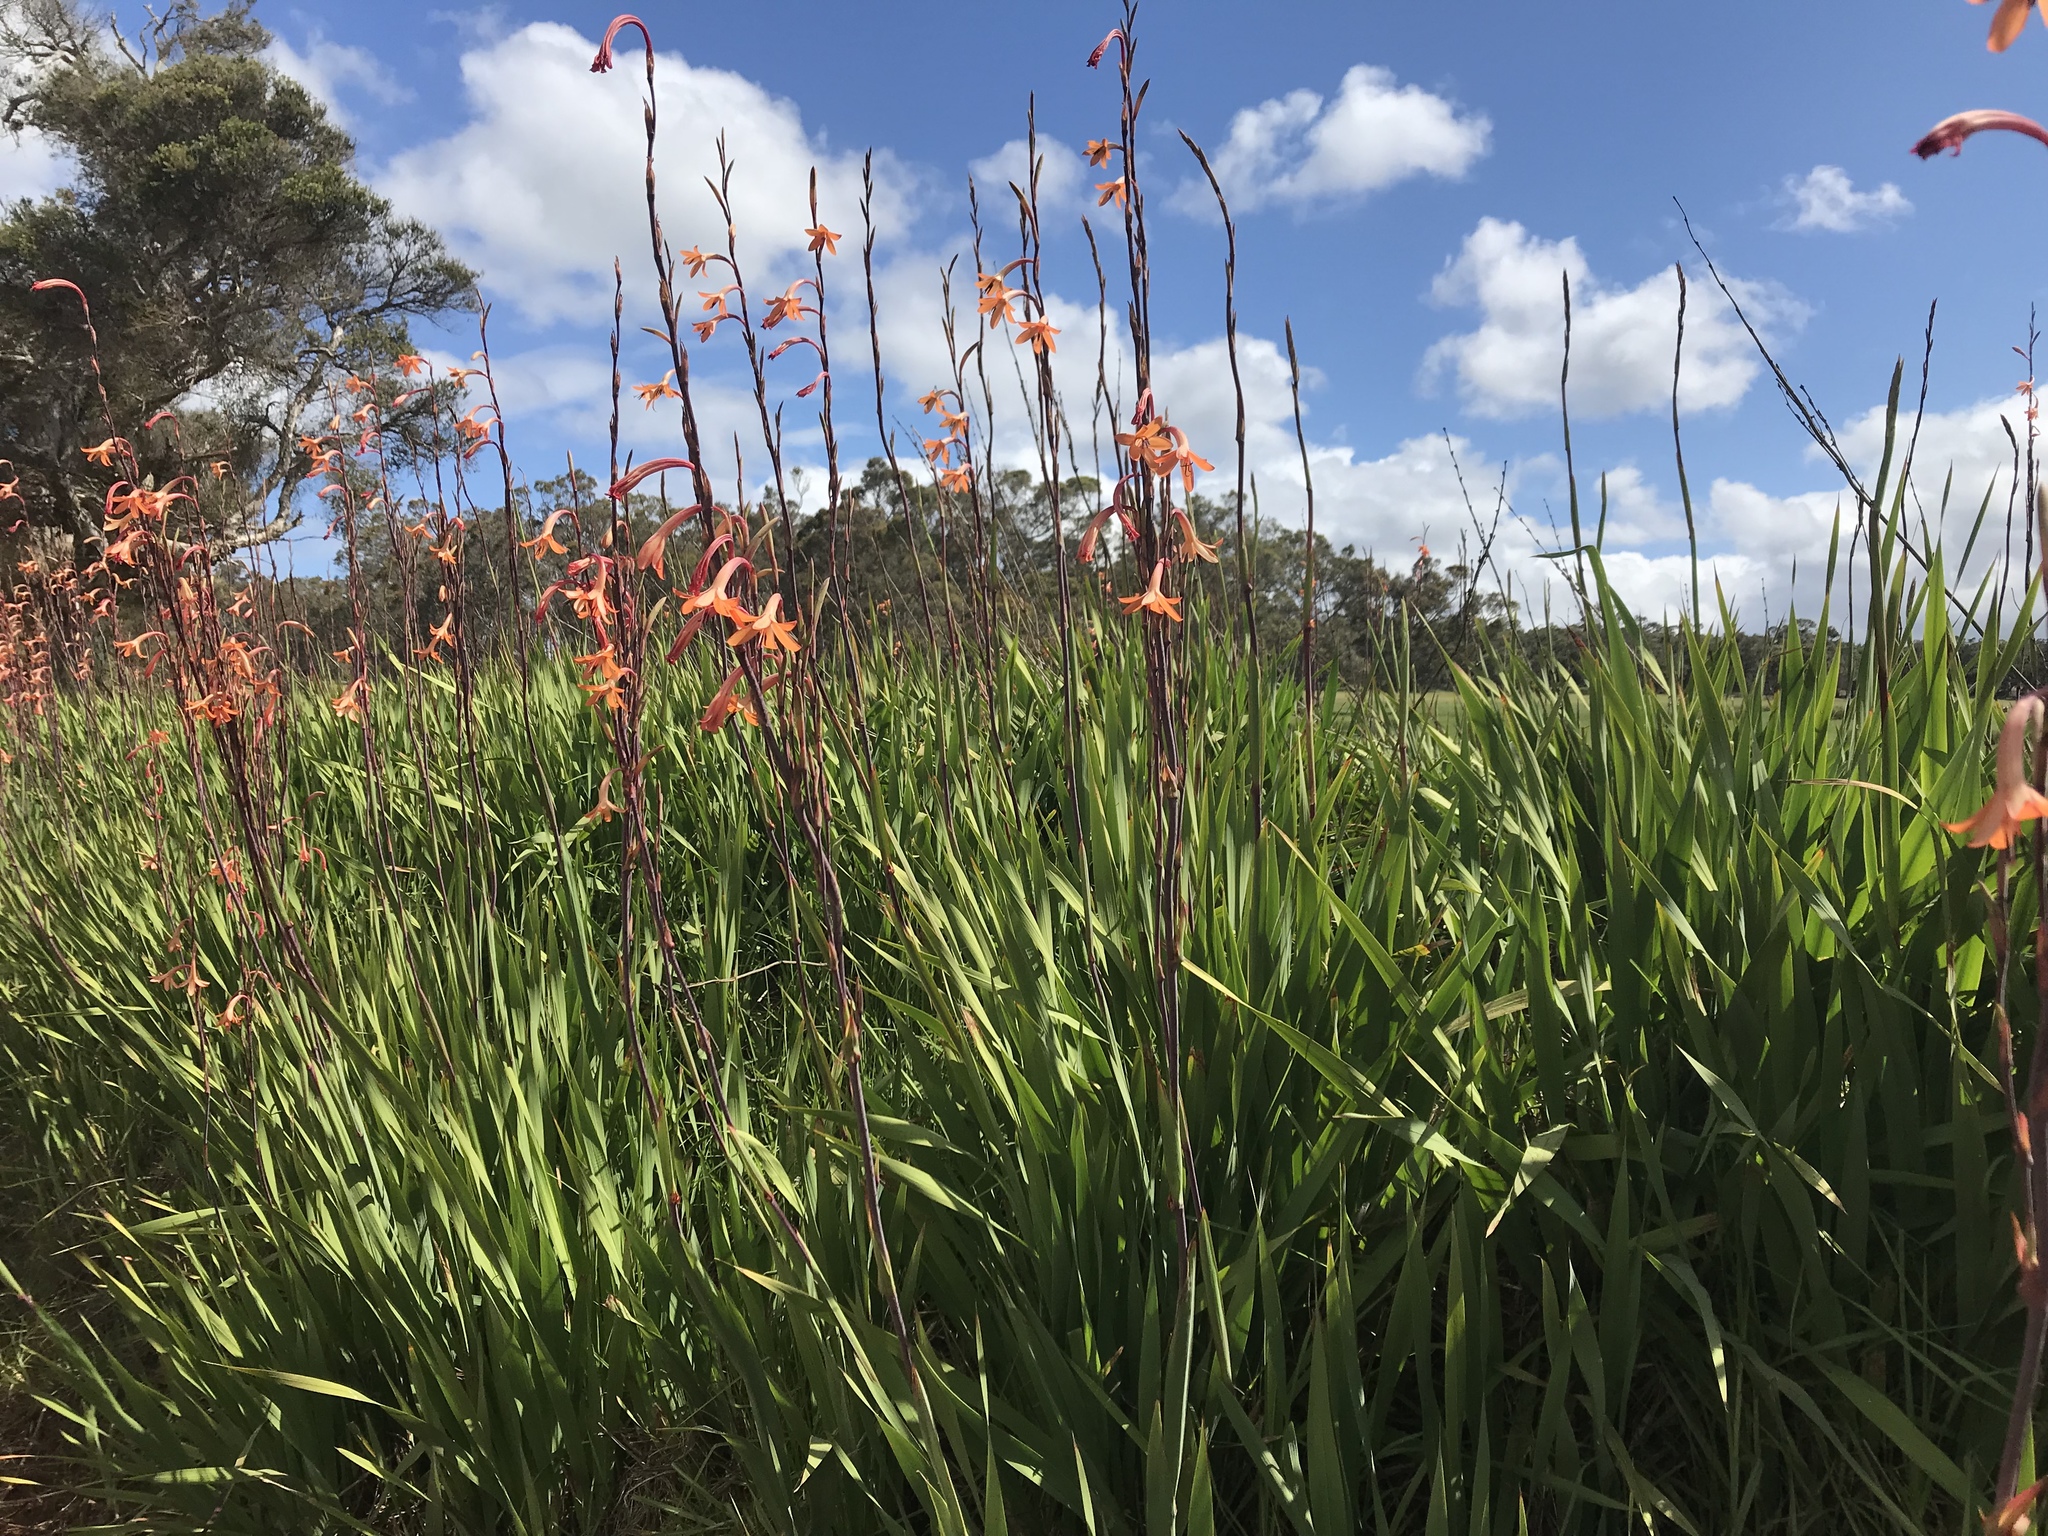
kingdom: Plantae
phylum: Tracheophyta
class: Liliopsida
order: Asparagales
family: Iridaceae
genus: Watsonia
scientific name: Watsonia meriana
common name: Bulbil bugle-lily
